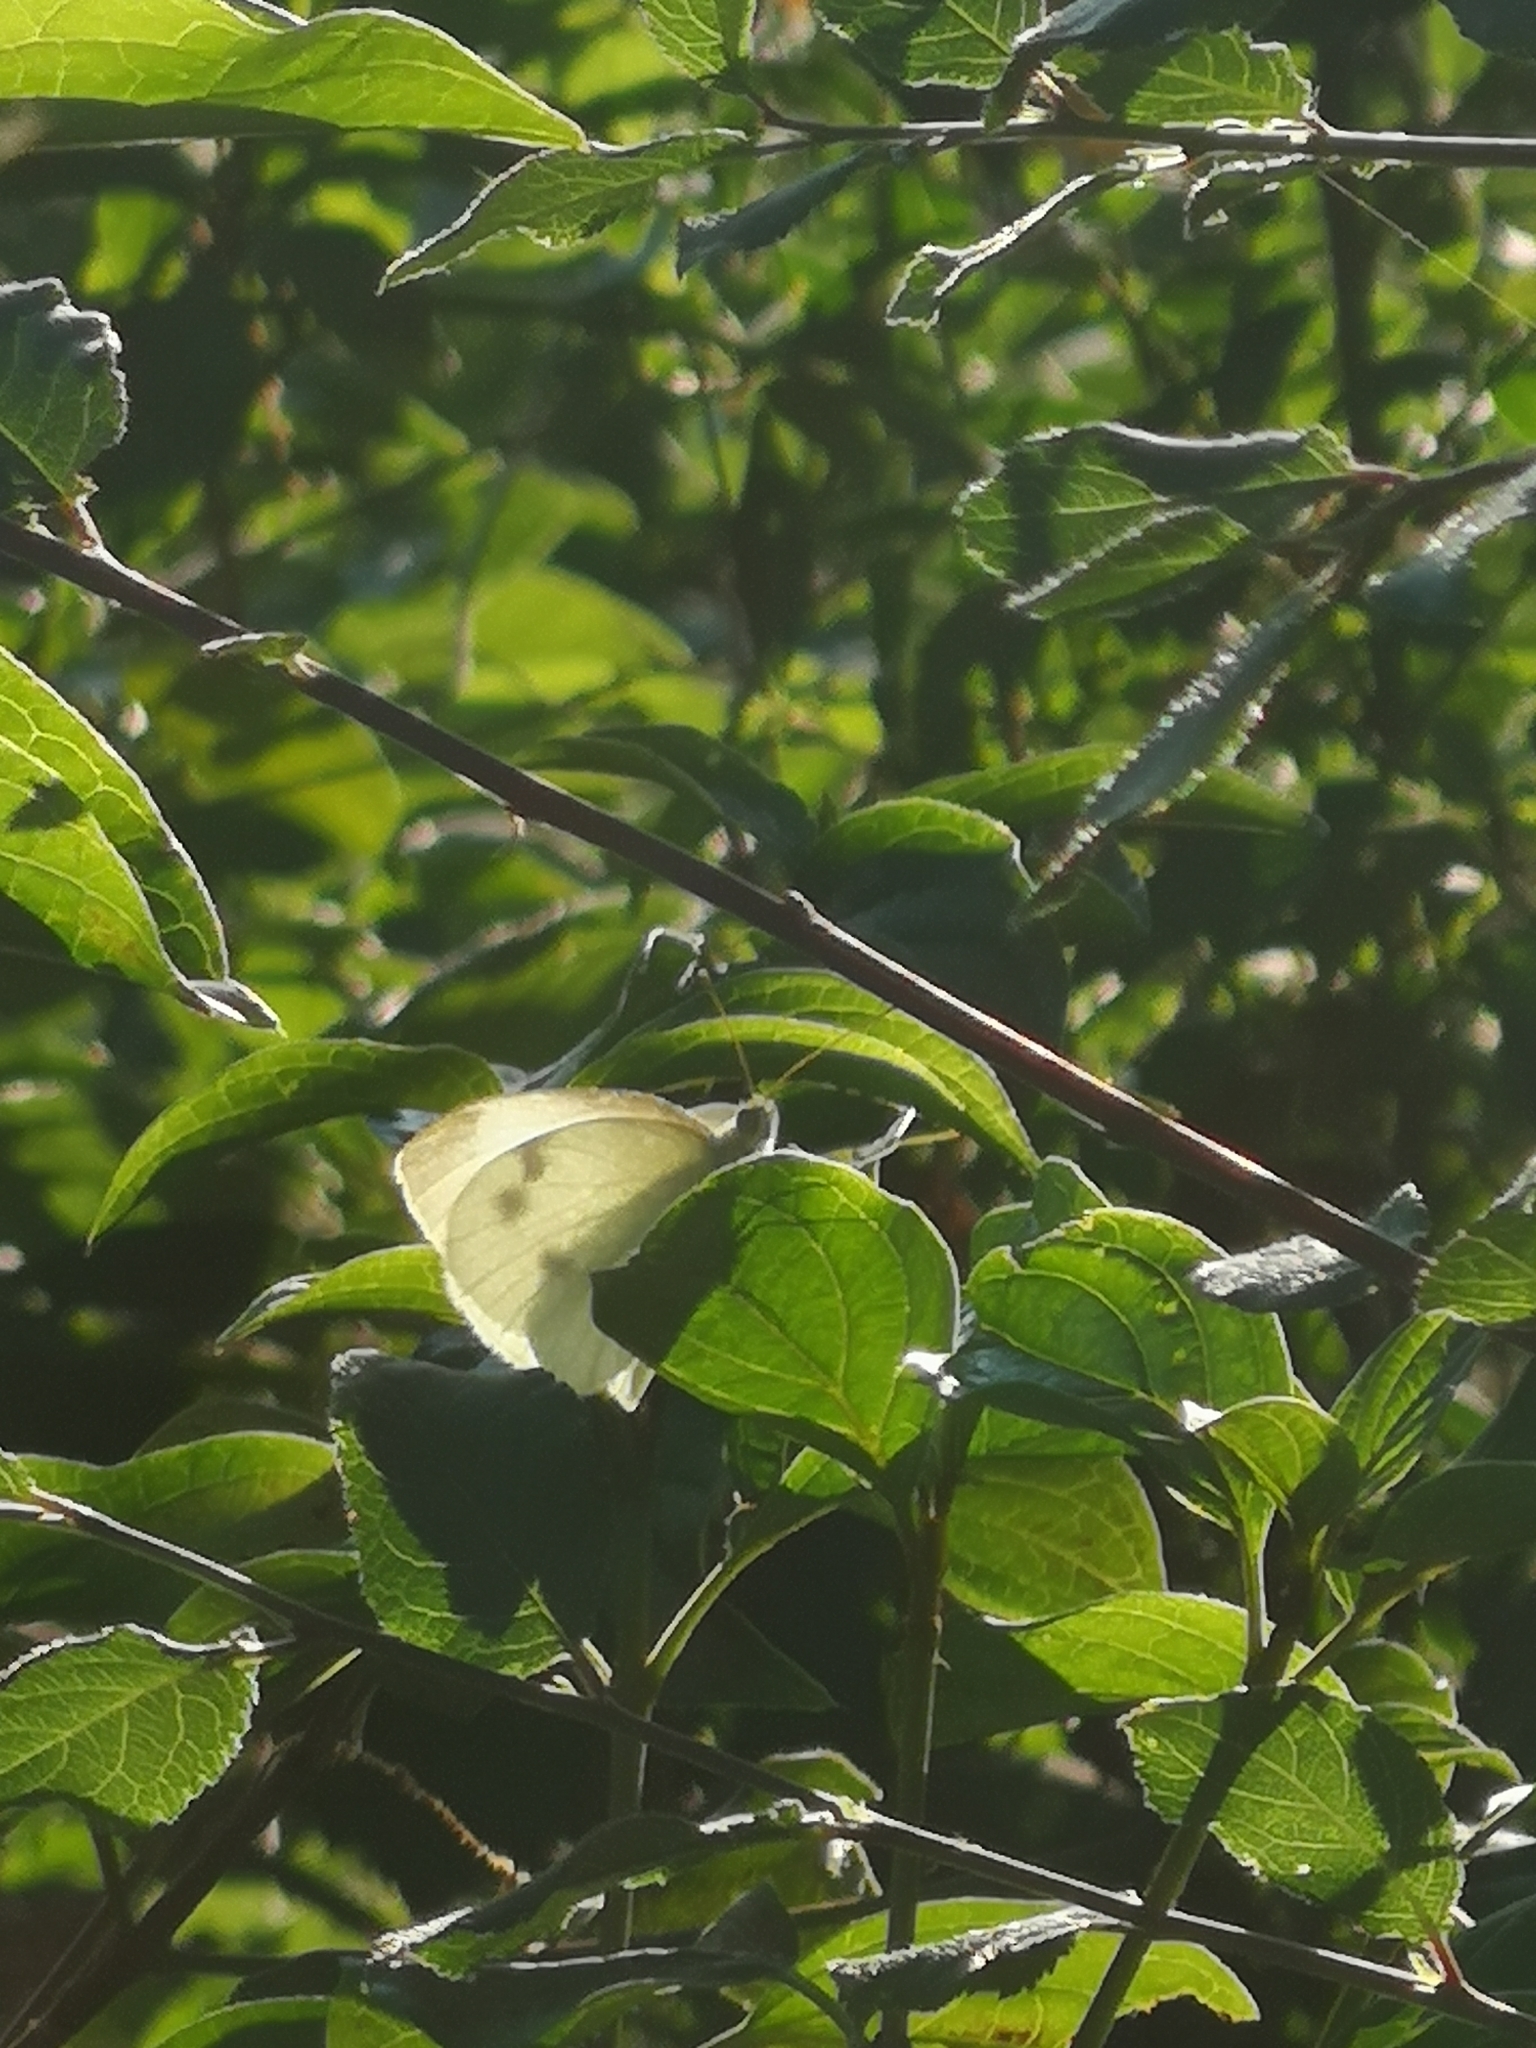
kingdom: Animalia
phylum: Arthropoda
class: Insecta
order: Lepidoptera
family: Pieridae
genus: Pieris
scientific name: Pieris rapae
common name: Small white
